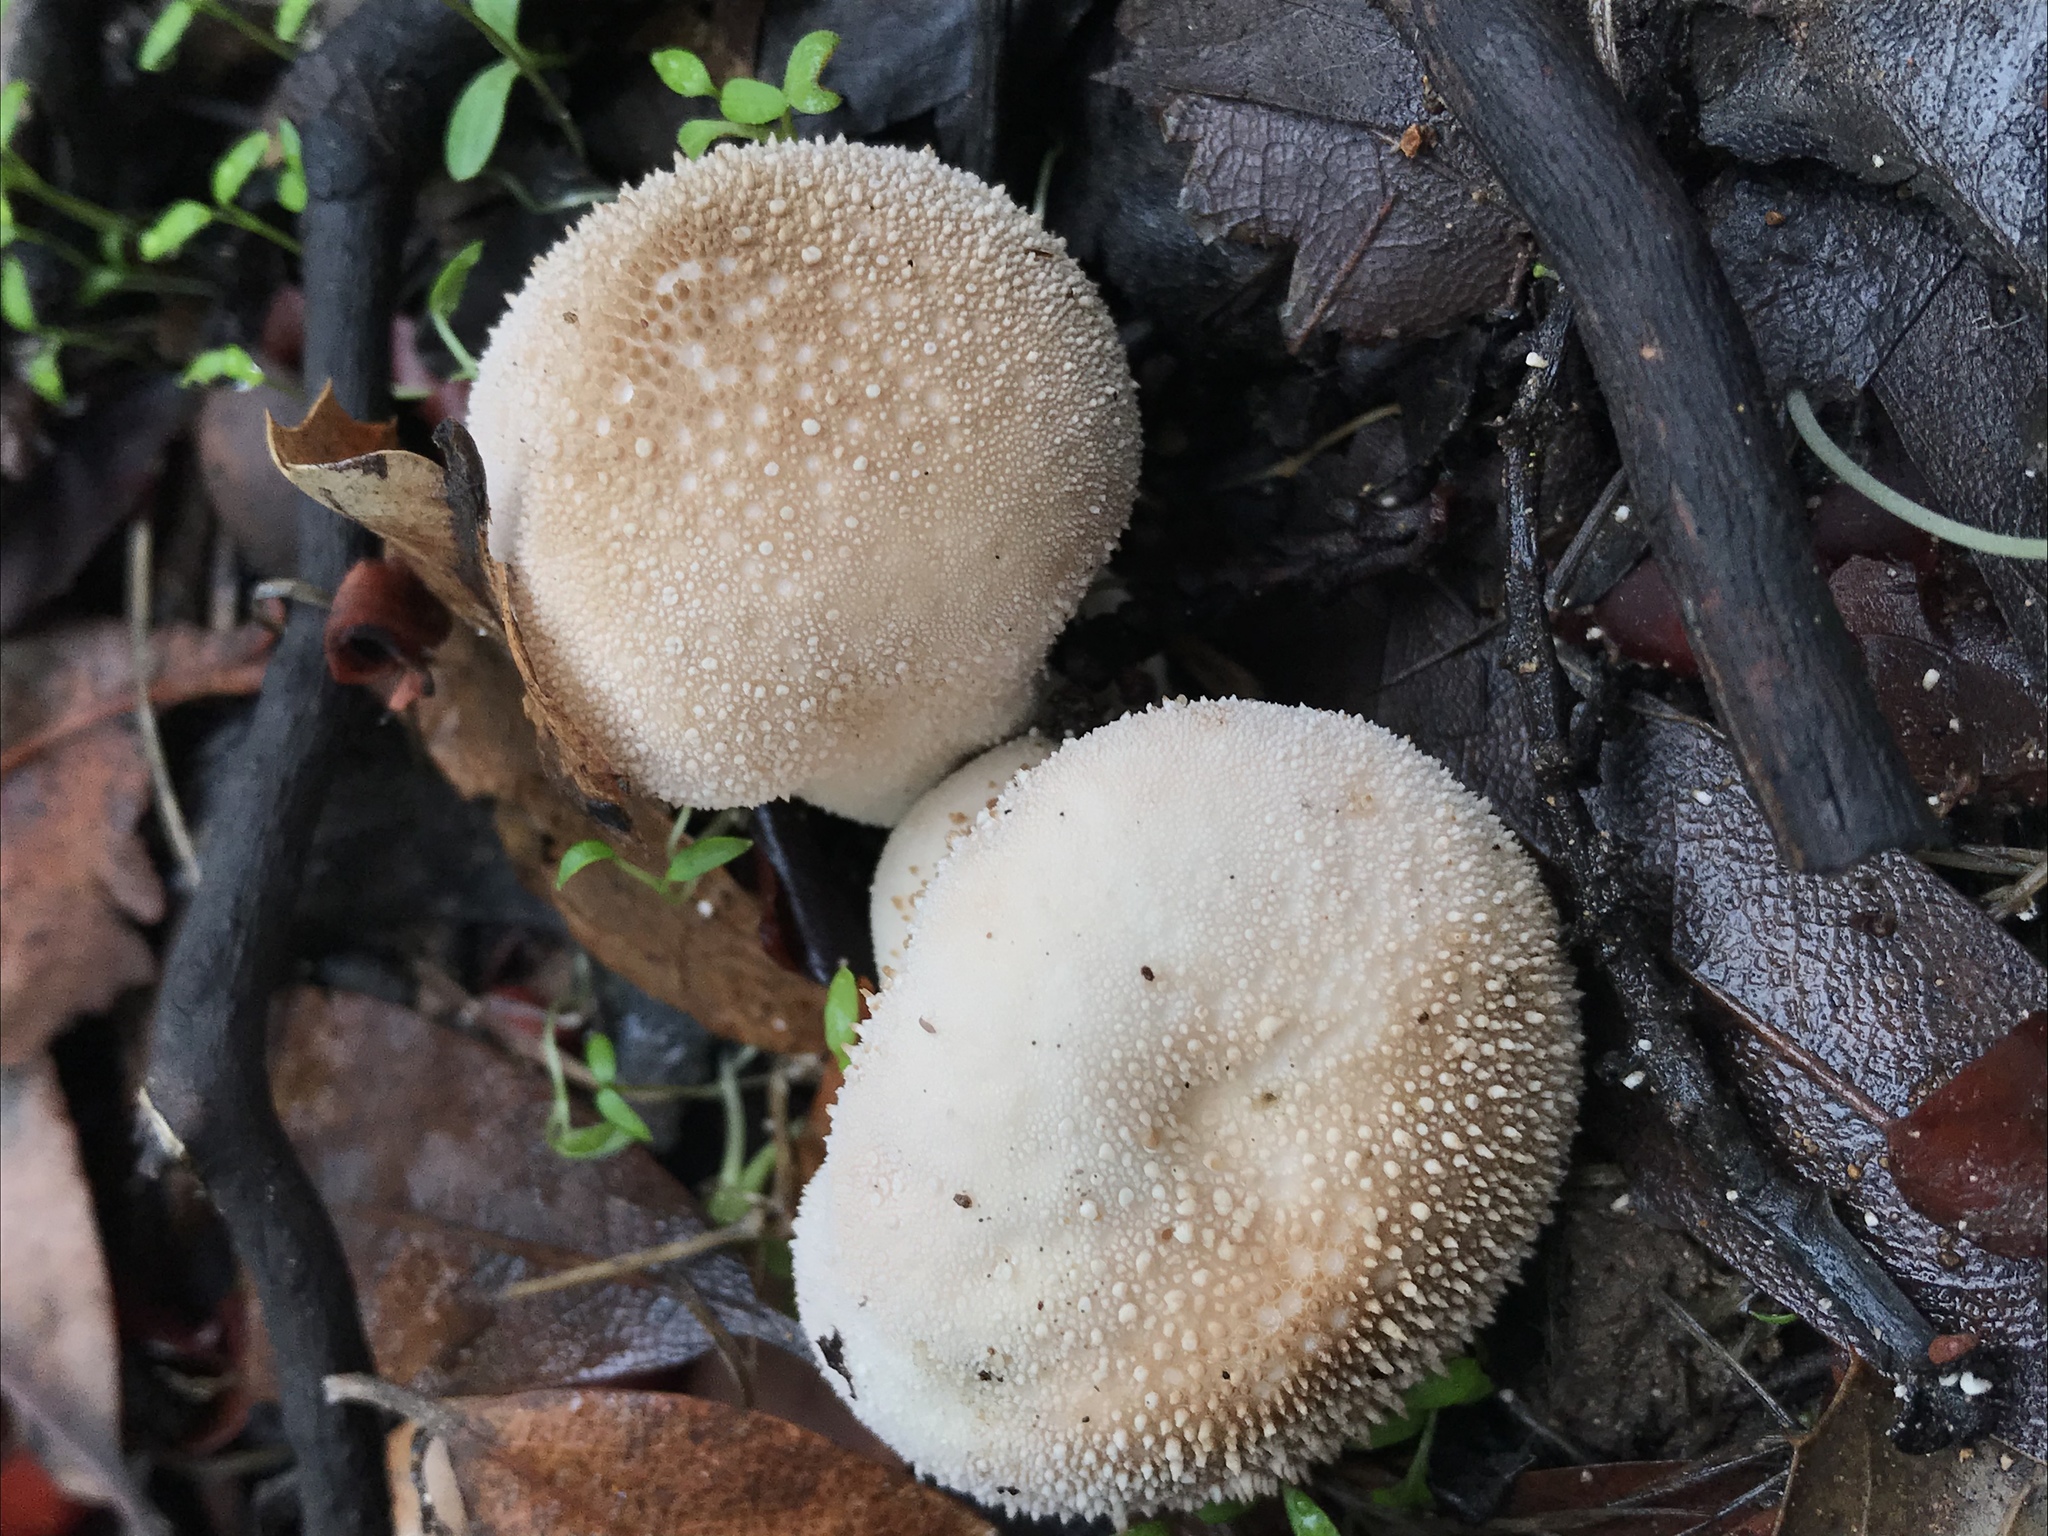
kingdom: Fungi
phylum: Basidiomycota
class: Agaricomycetes
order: Agaricales
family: Lycoperdaceae
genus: Lycoperdon
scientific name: Lycoperdon perlatum
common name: Common puffball
